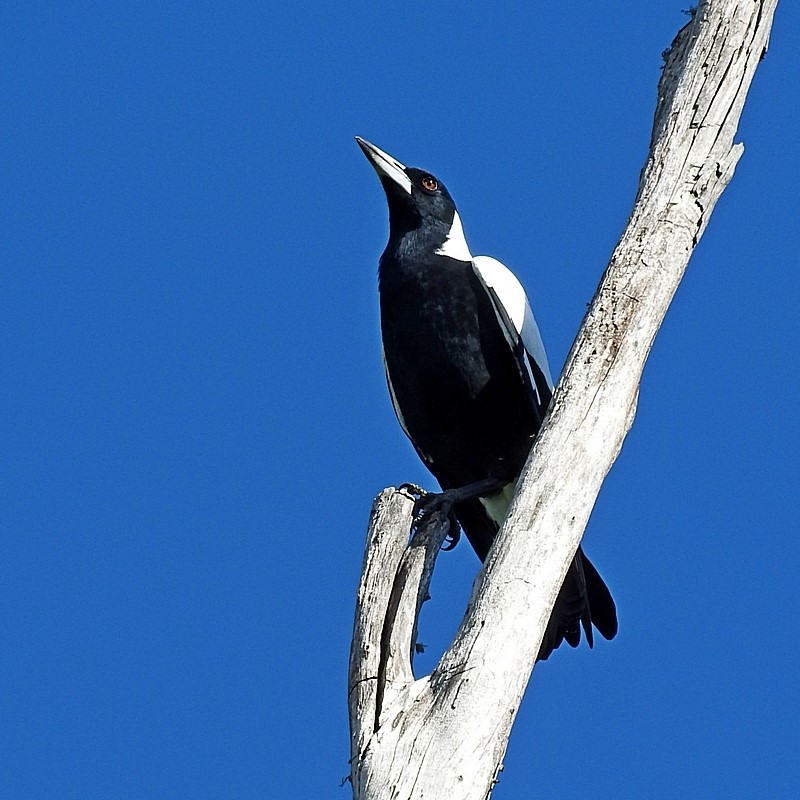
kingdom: Animalia
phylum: Chordata
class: Aves
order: Passeriformes
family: Cracticidae
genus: Gymnorhina
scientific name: Gymnorhina tibicen
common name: Australian magpie
